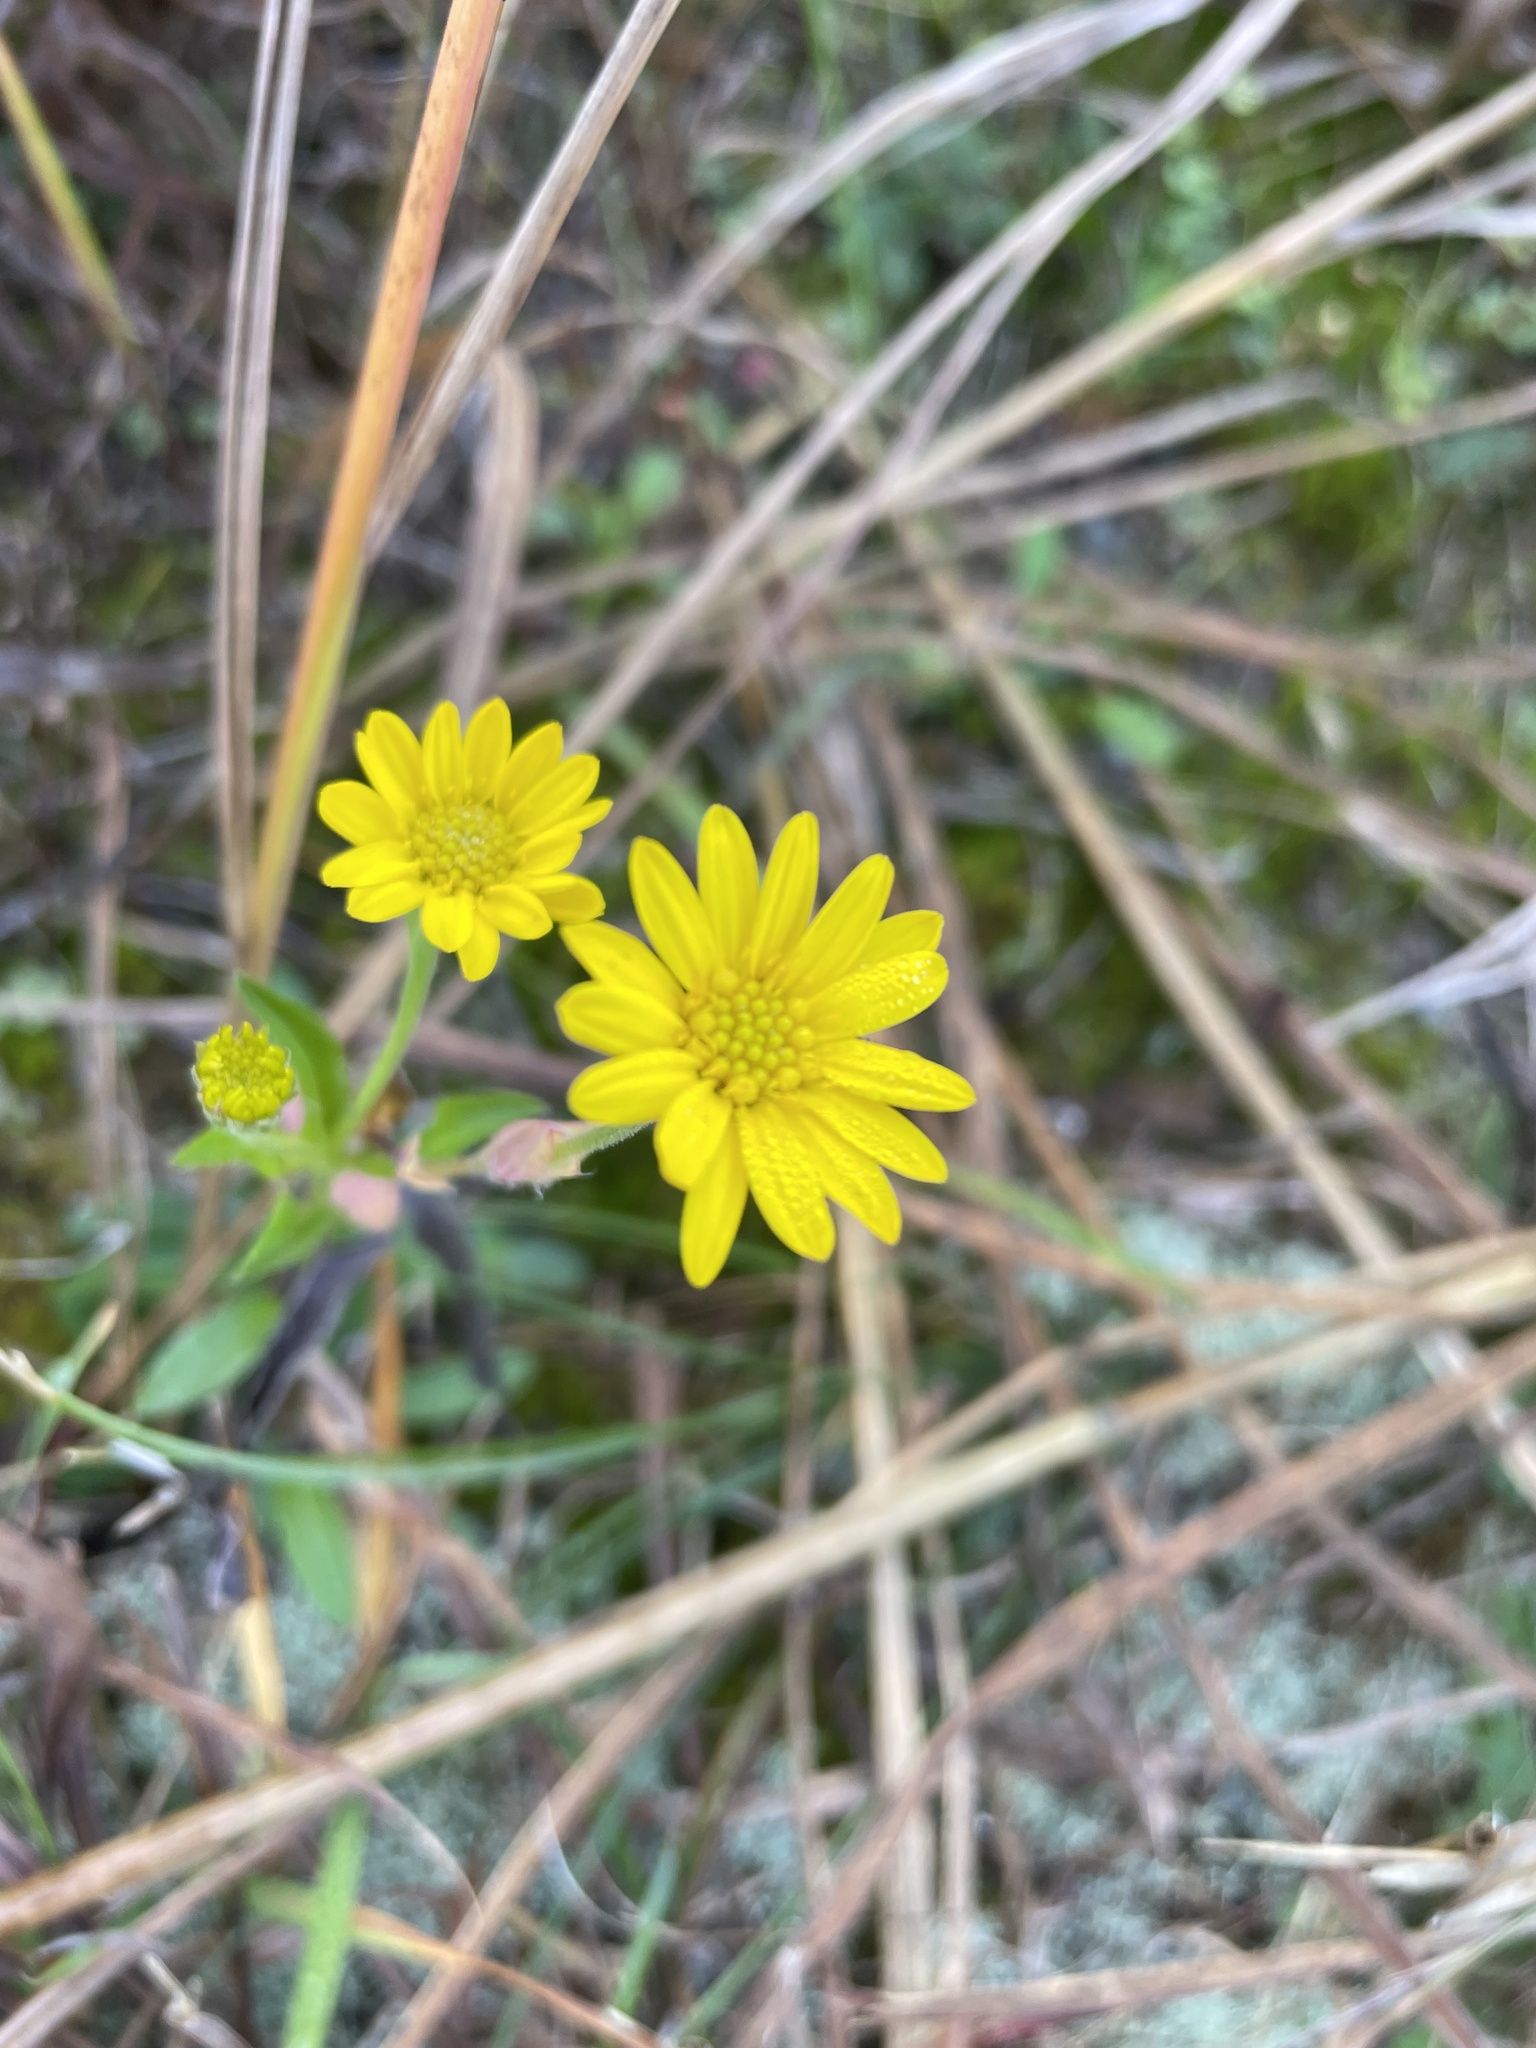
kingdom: Plantae
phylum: Tracheophyta
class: Magnoliopsida
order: Asterales
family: Asteraceae
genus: Chrysopsis
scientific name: Chrysopsis mariana
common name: Maryland golden-aster
